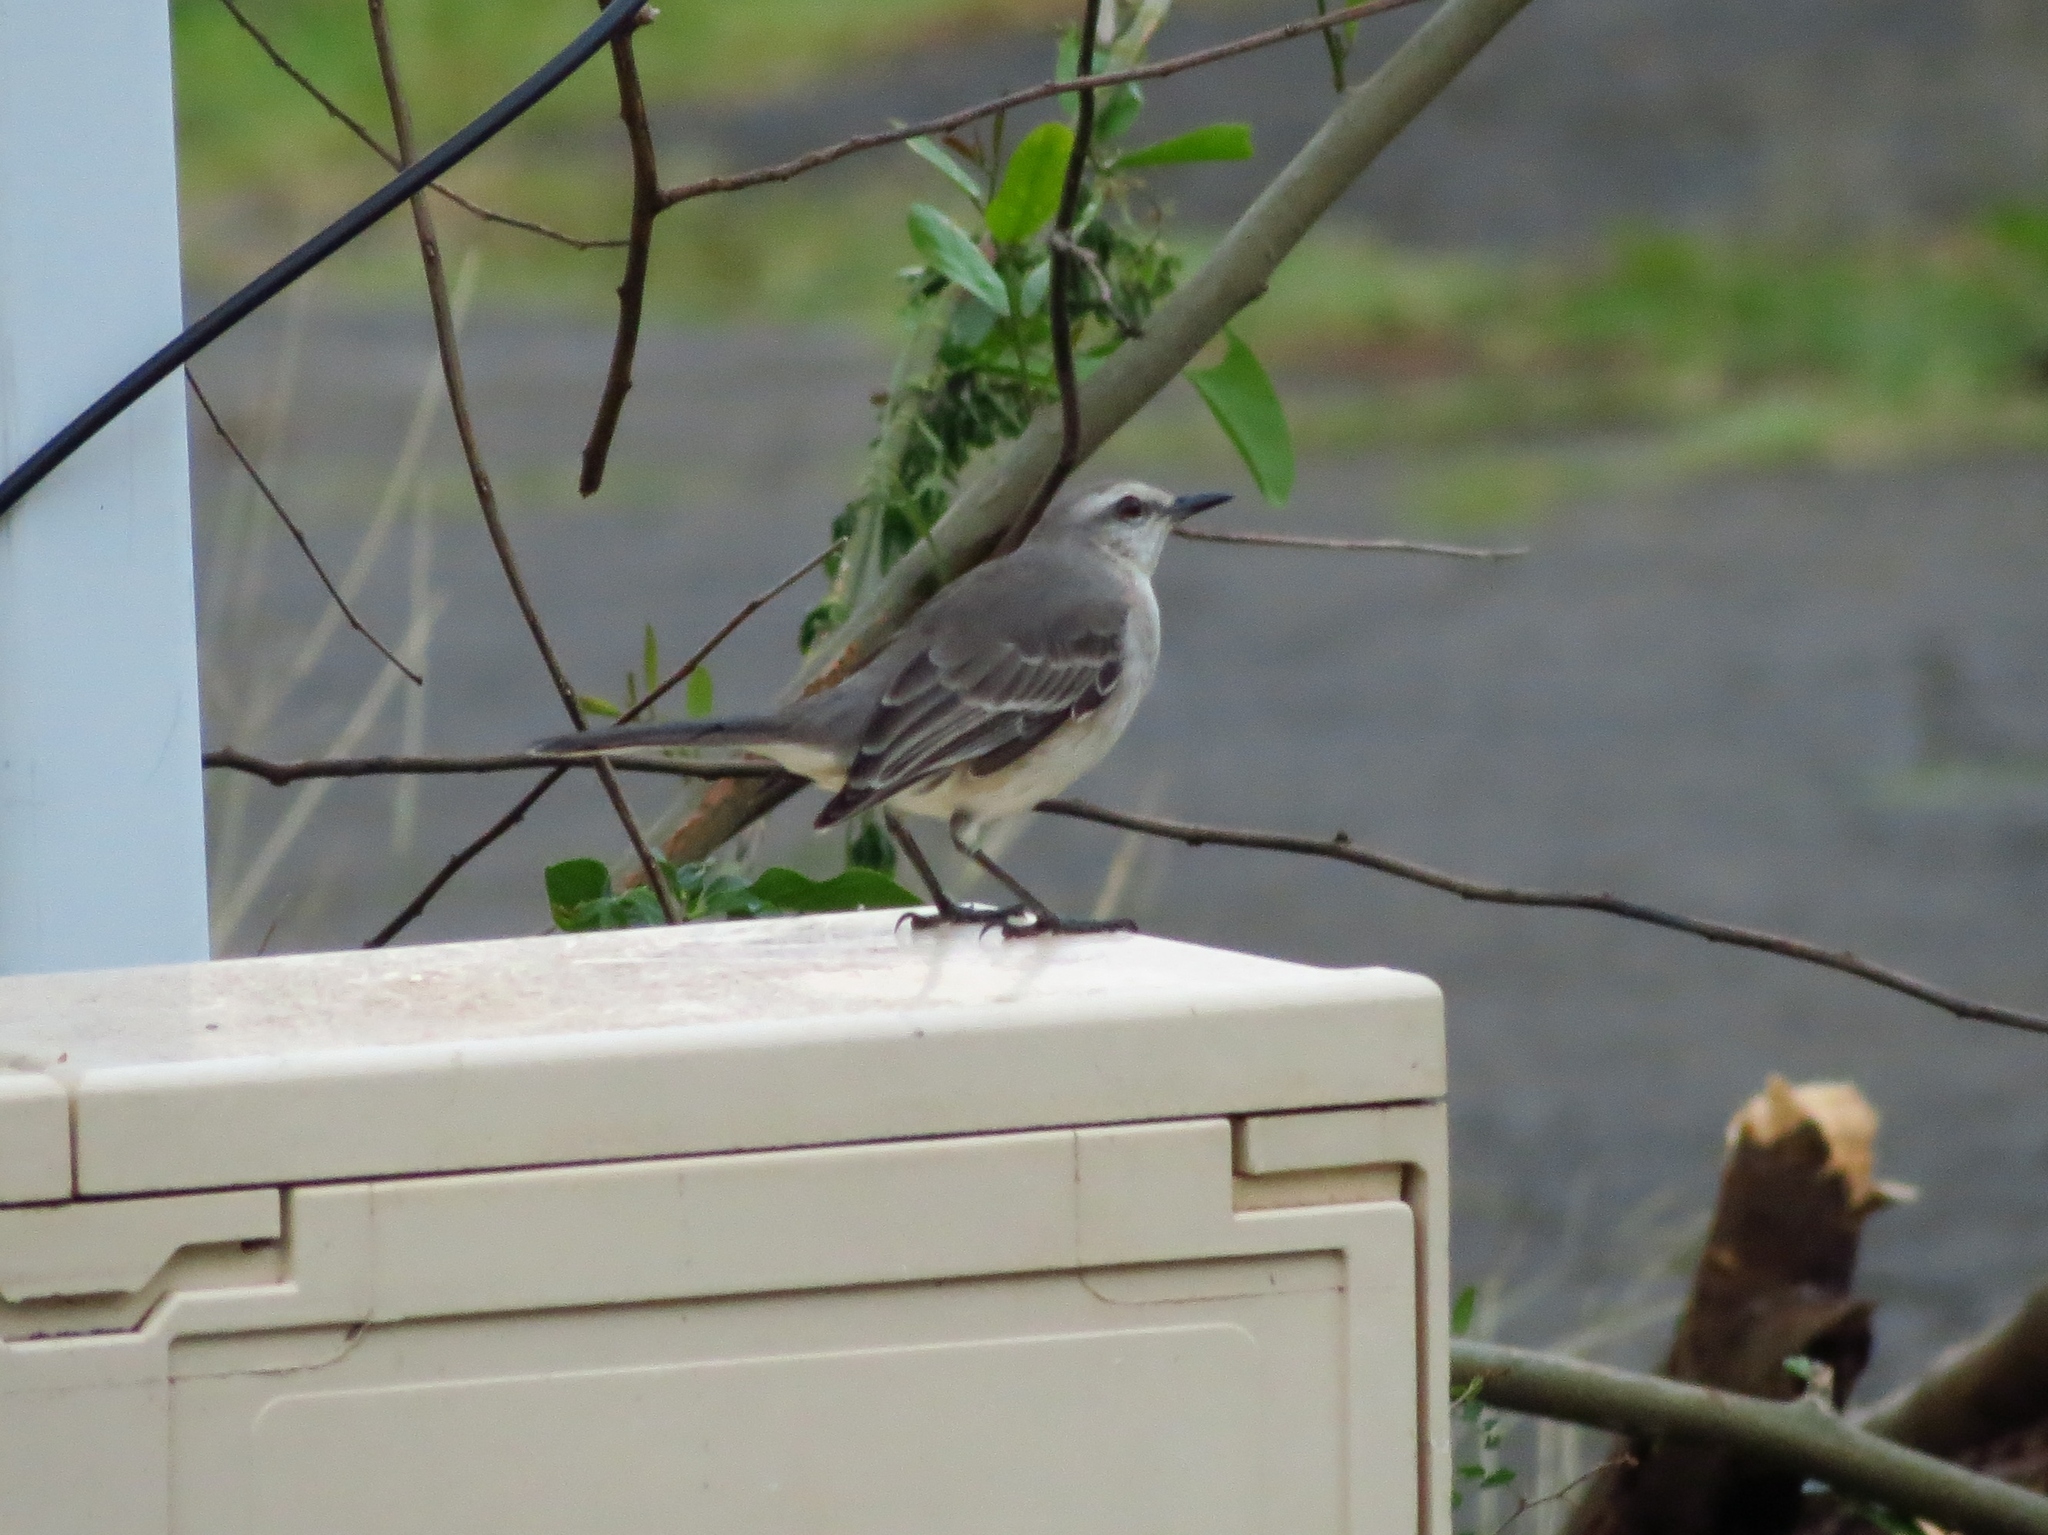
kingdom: Animalia
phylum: Chordata
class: Aves
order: Passeriformes
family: Mimidae
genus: Mimus
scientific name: Mimus gilvus
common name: Tropical mockingbird
